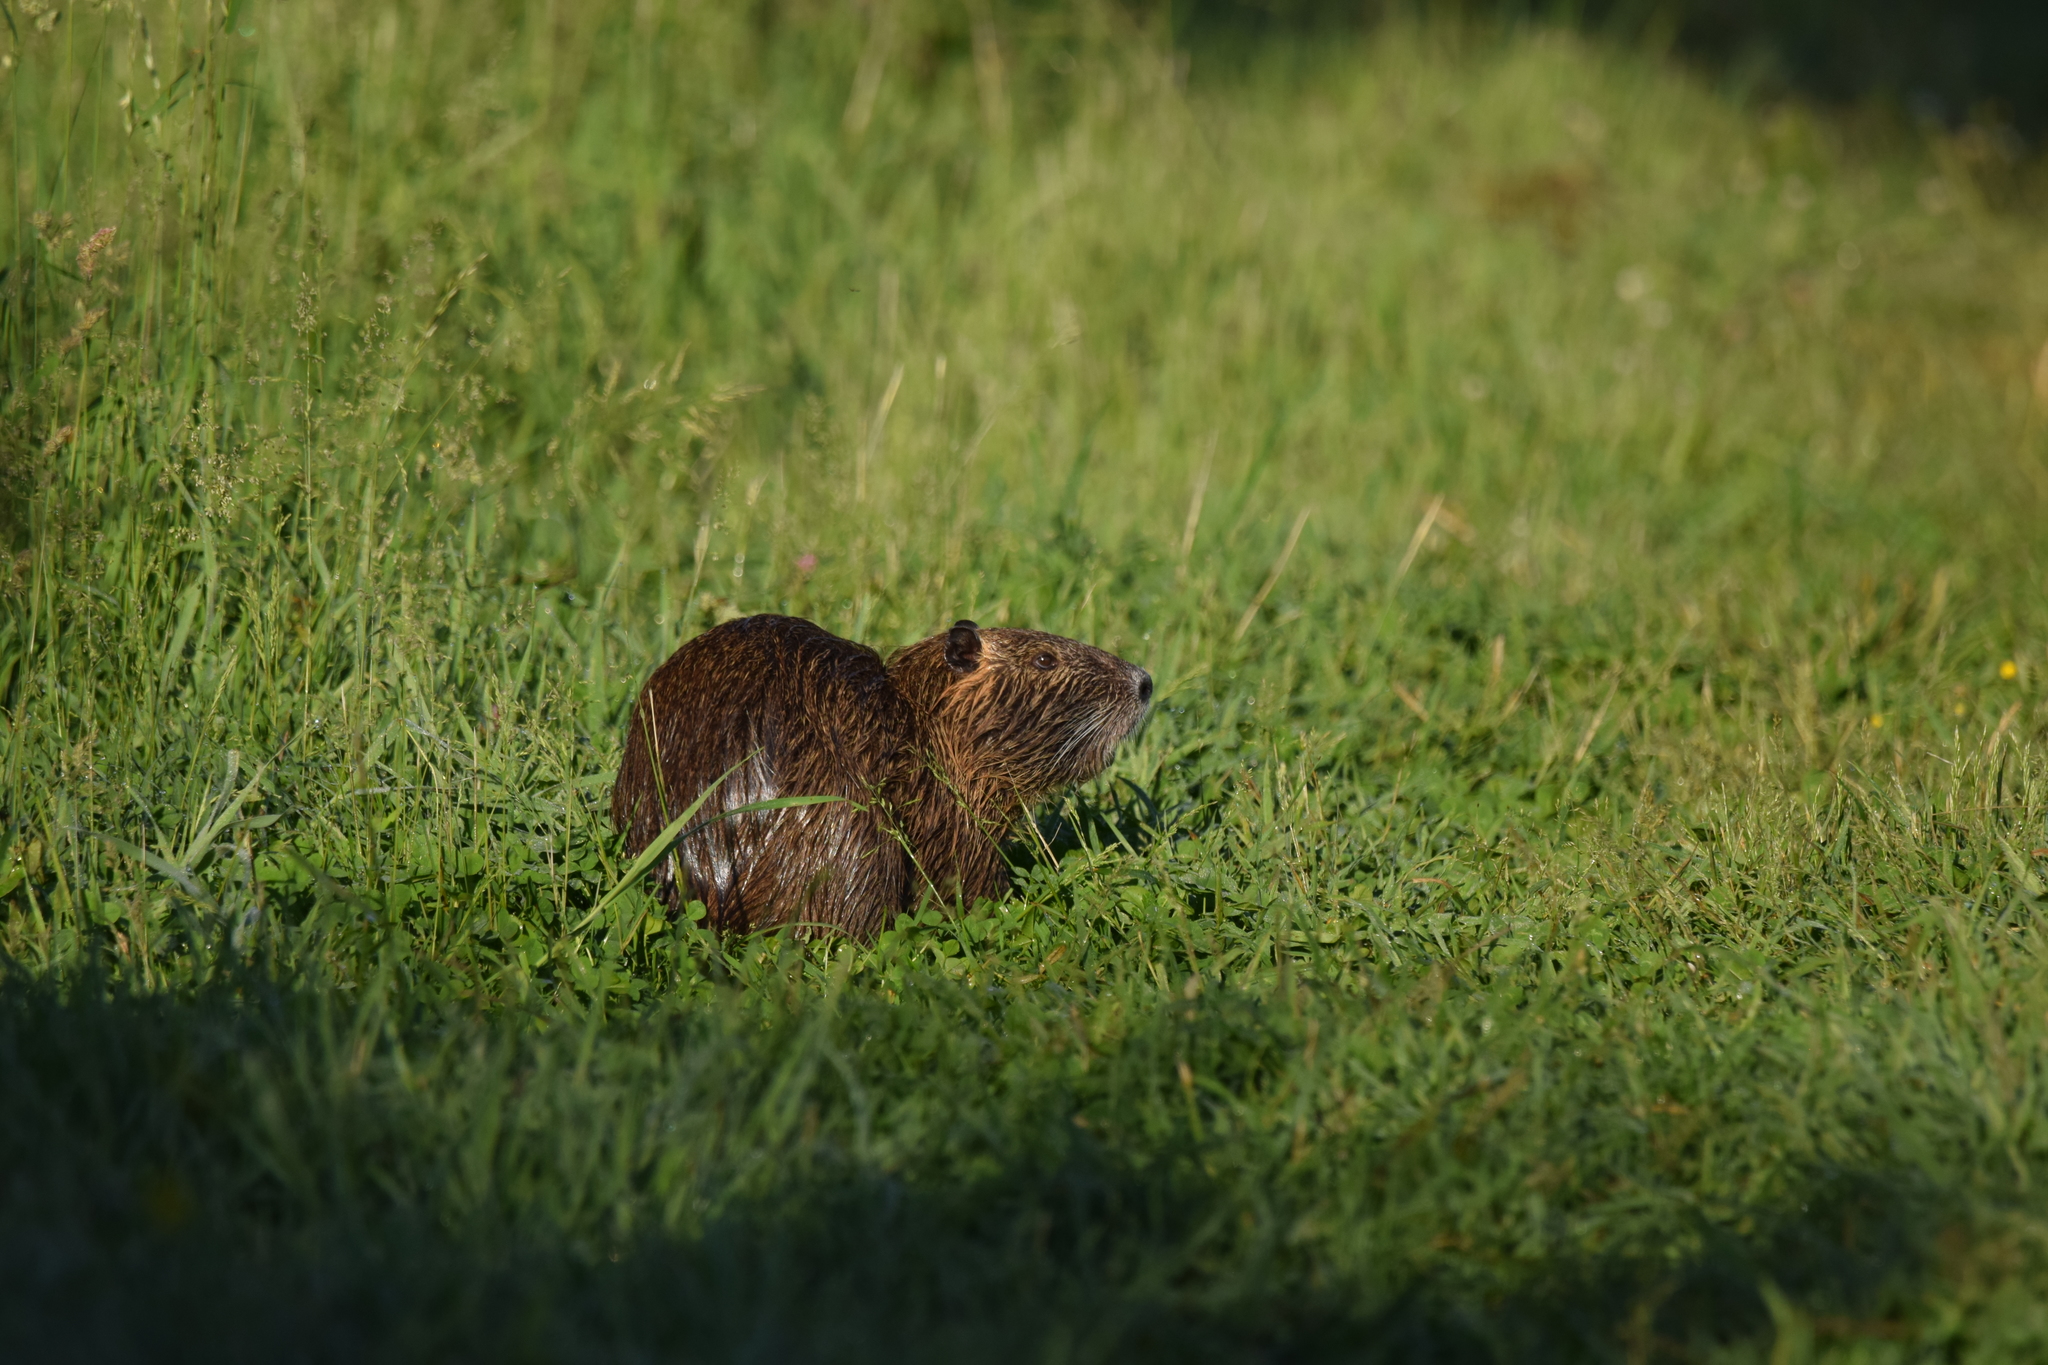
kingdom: Animalia
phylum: Chordata
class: Mammalia
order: Rodentia
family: Myocastoridae
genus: Myocastor
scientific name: Myocastor coypus
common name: Coypu
